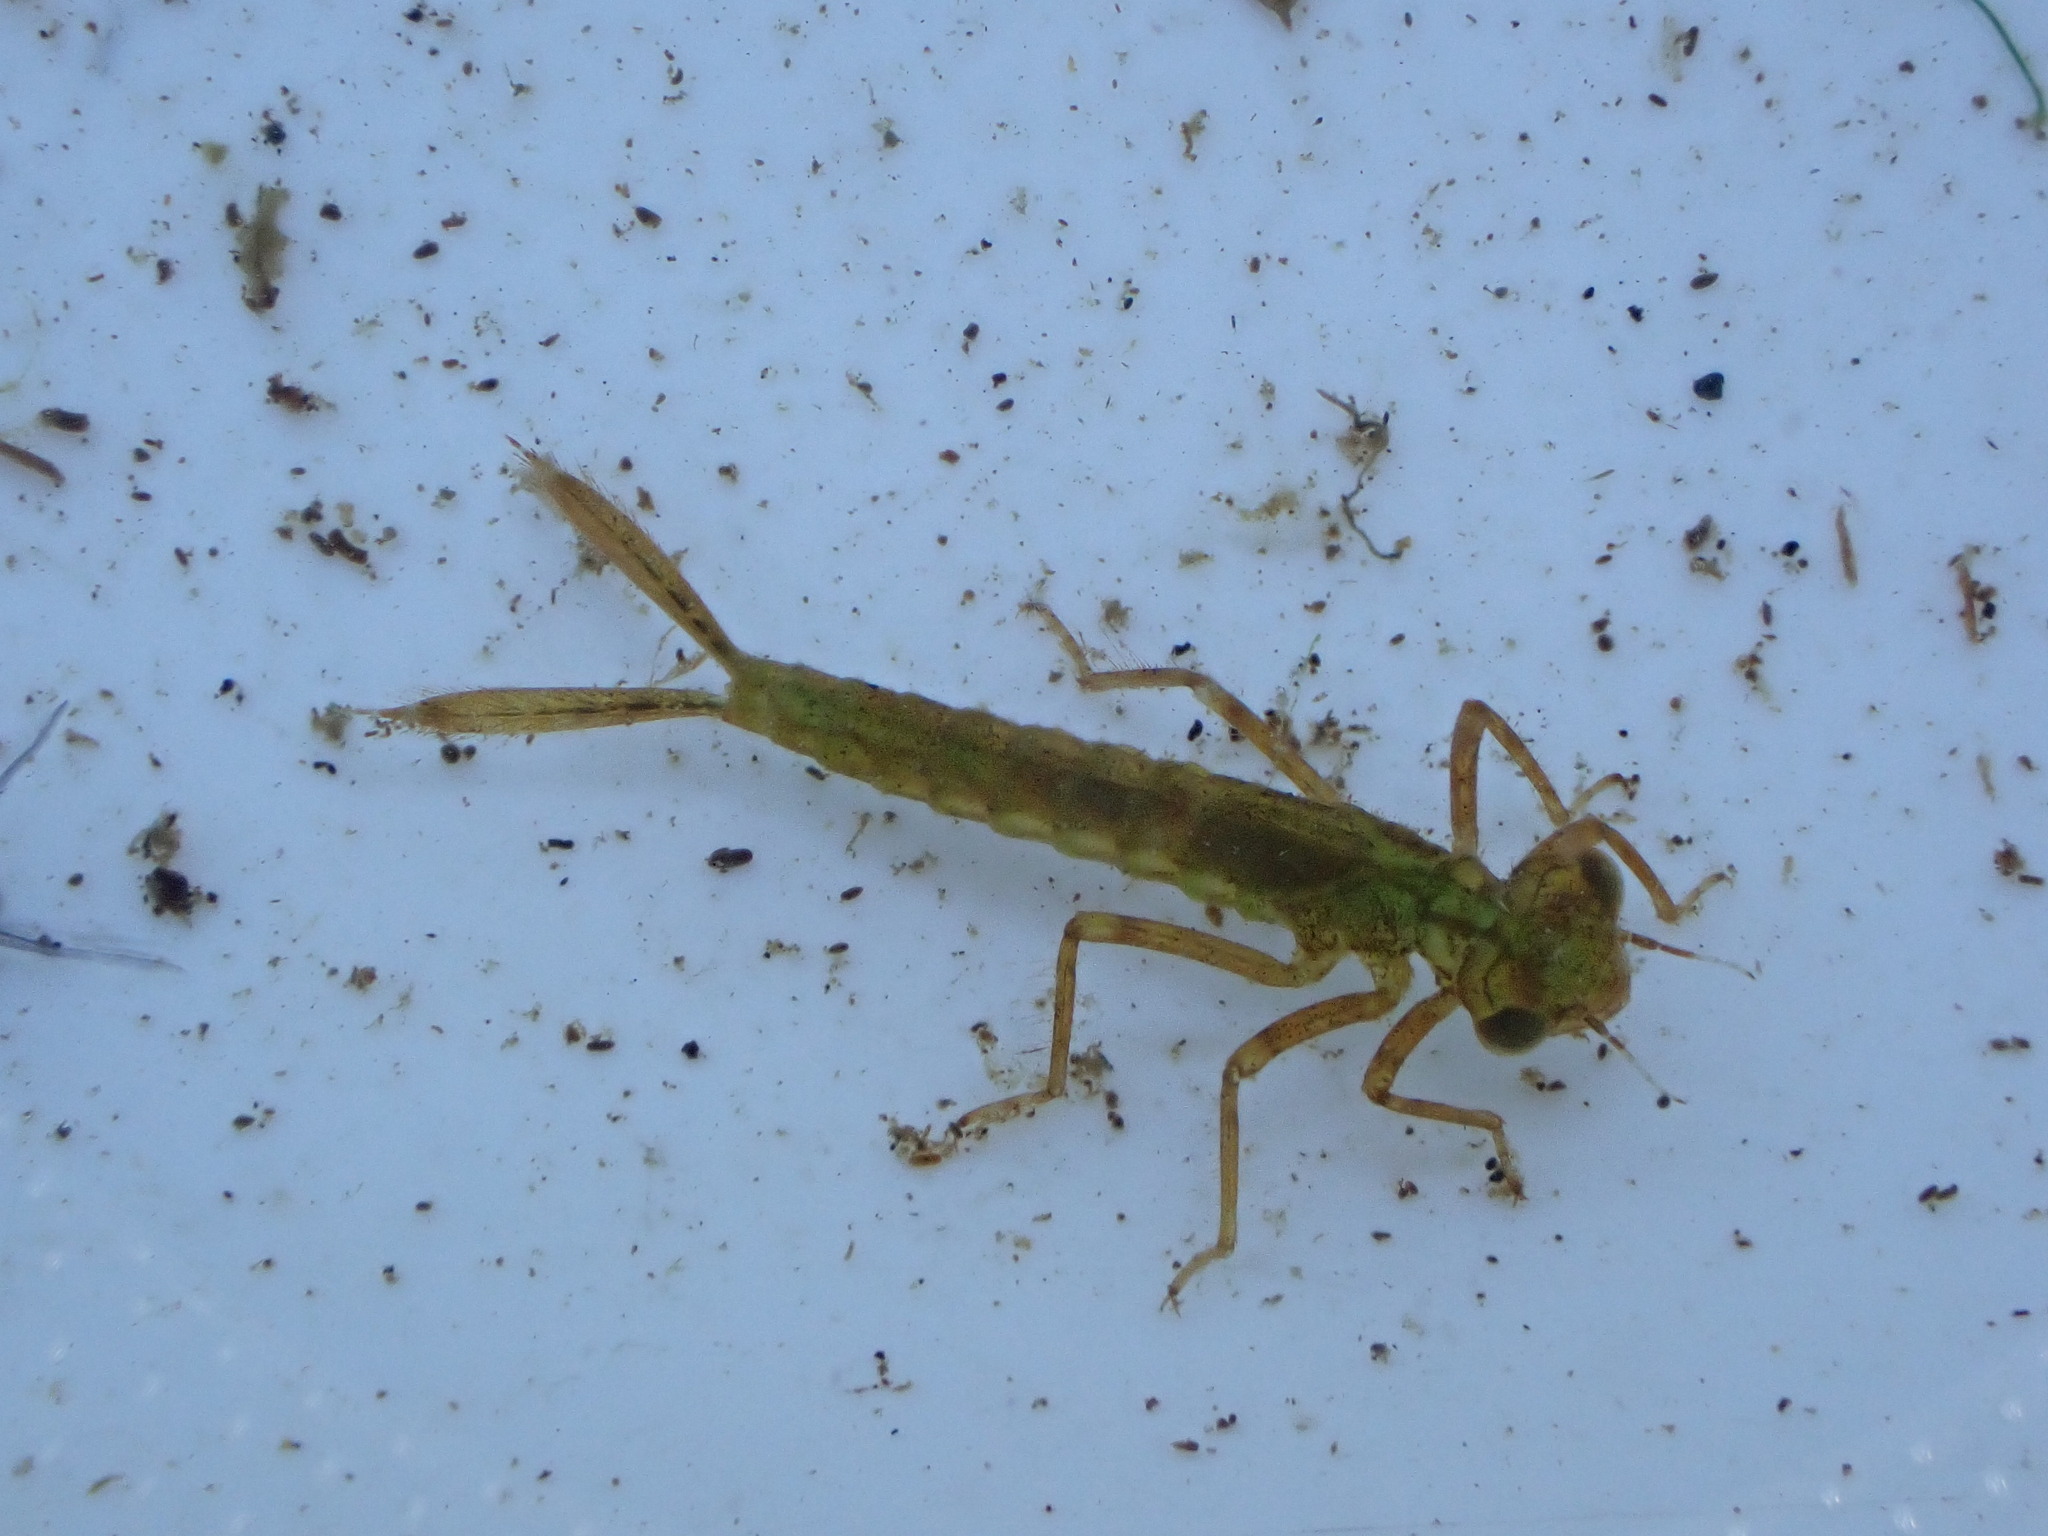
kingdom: Animalia
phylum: Arthropoda
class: Insecta
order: Odonata
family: Coenagrionidae
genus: Xanthocnemis
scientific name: Xanthocnemis zealandica
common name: Common redcoat damselfly
